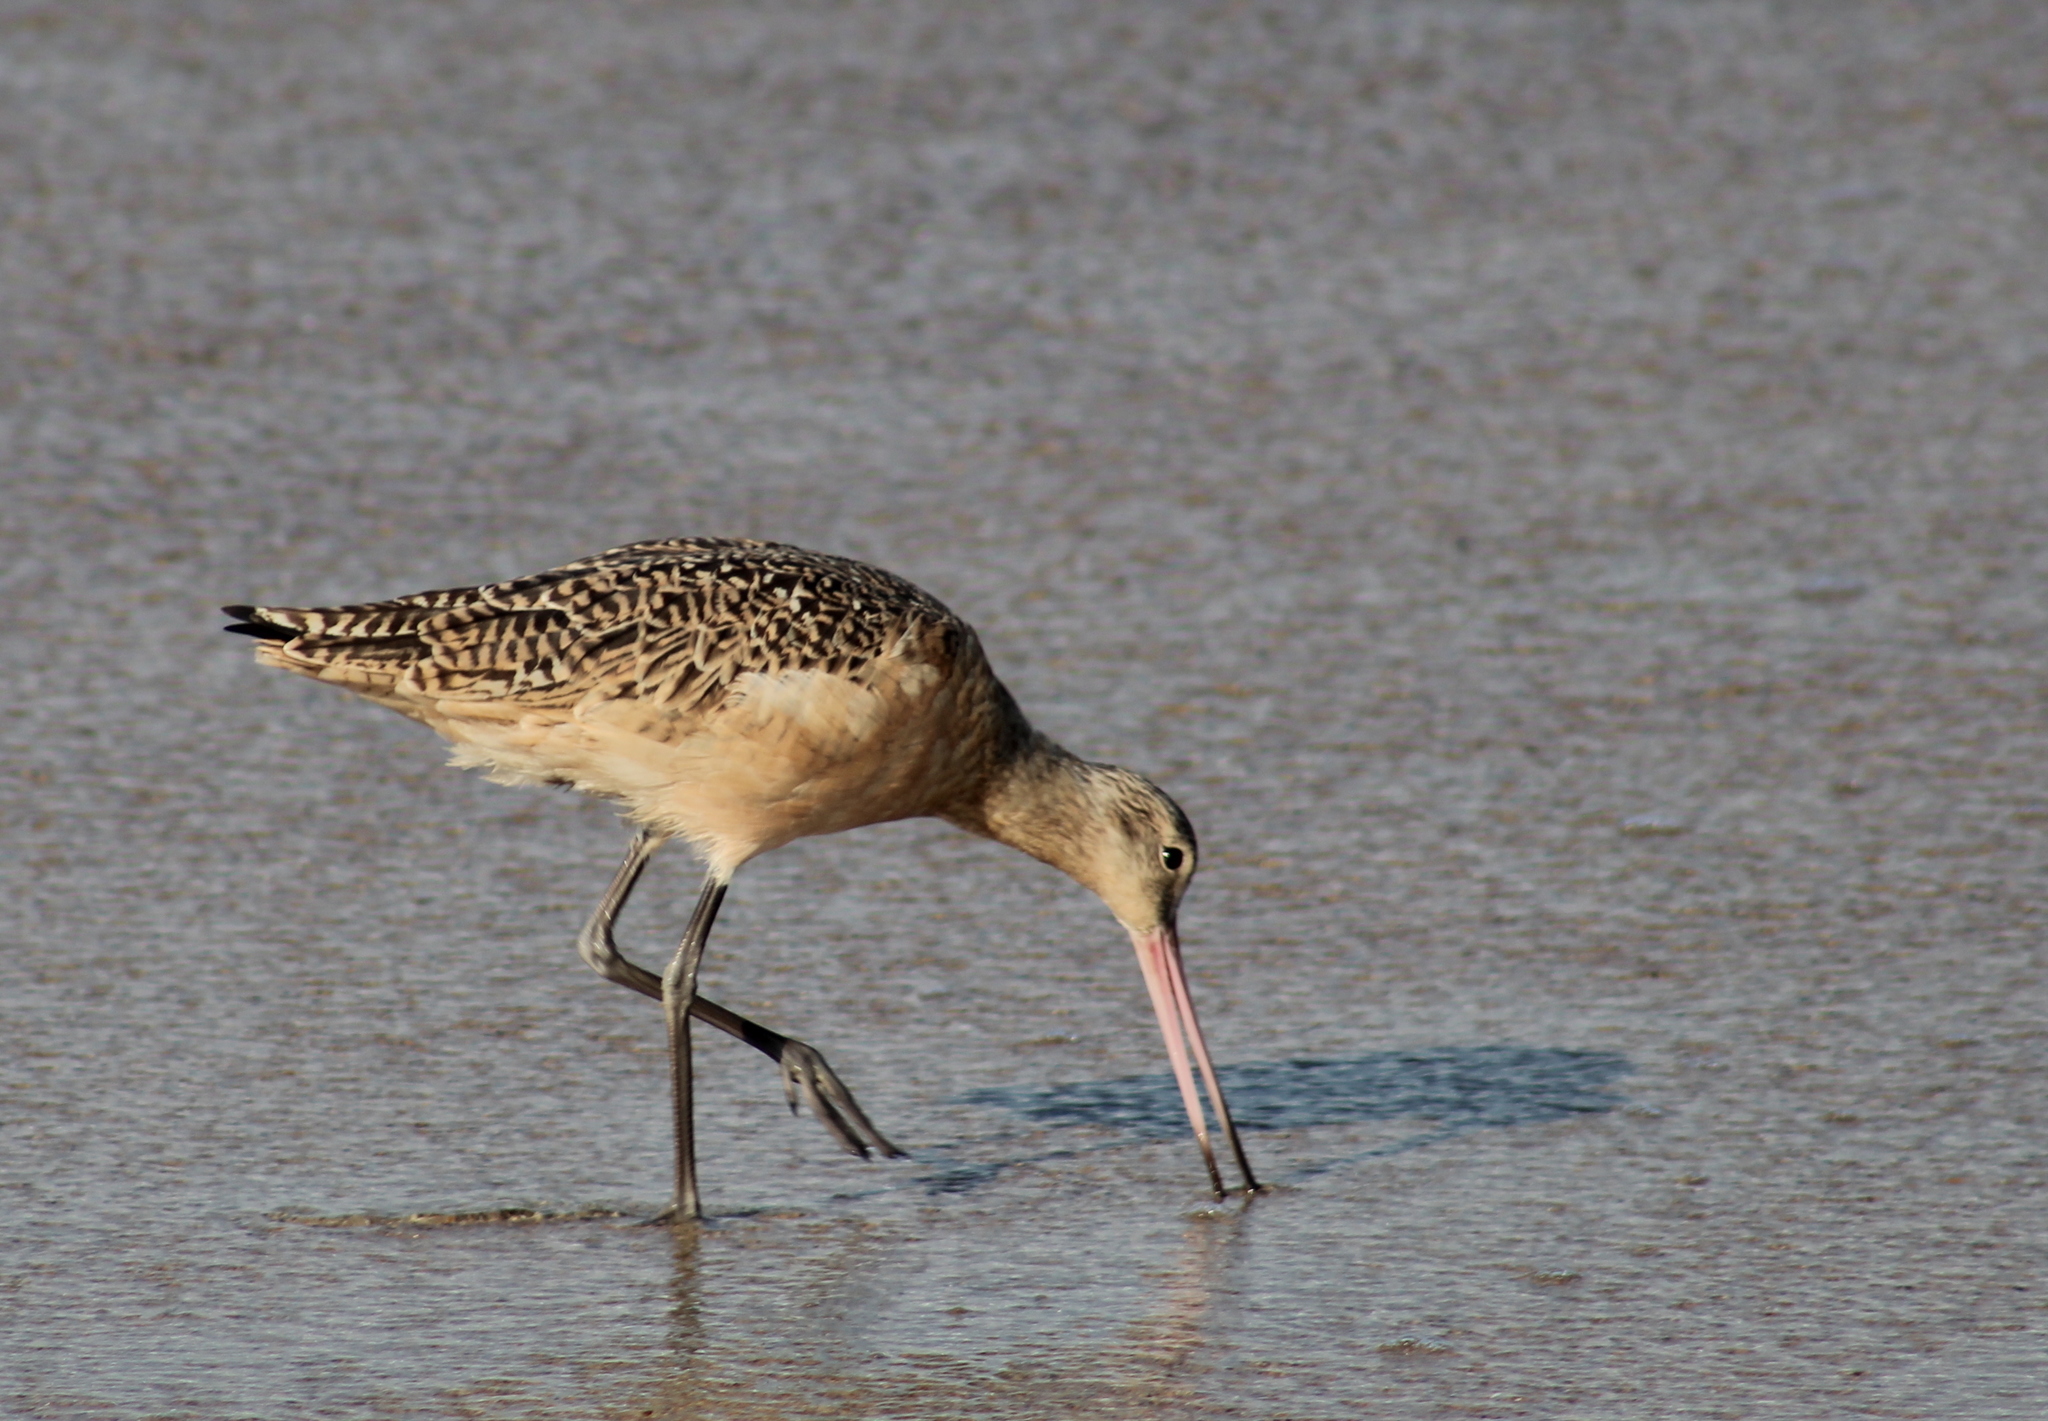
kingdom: Animalia
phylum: Chordata
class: Aves
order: Charadriiformes
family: Scolopacidae
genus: Limosa
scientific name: Limosa fedoa
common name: Marbled godwit
